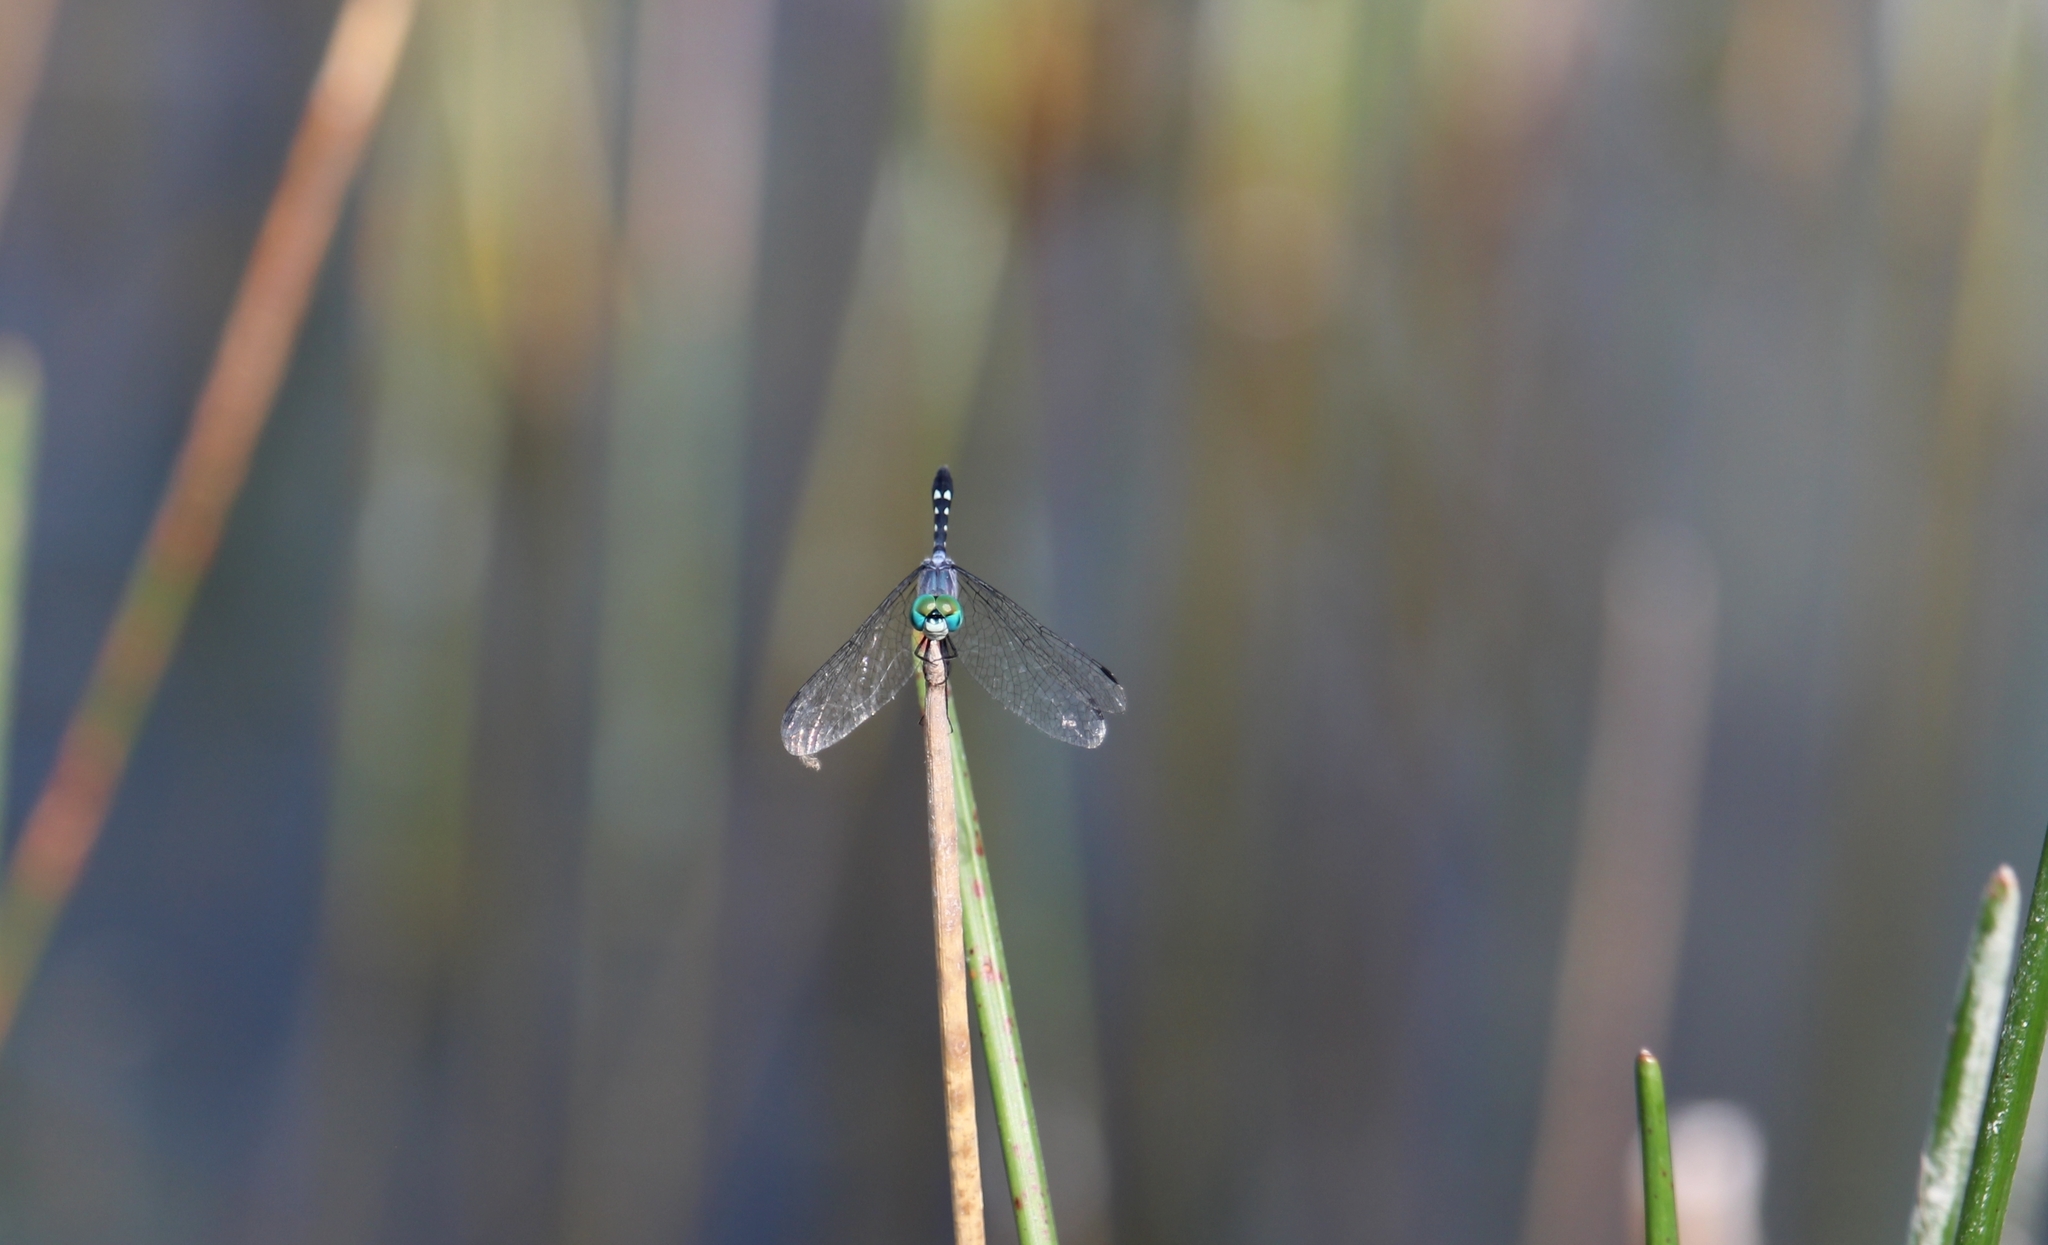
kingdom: Animalia
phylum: Arthropoda
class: Insecta
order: Odonata
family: Libellulidae
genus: Micrathyria
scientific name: Micrathyria debilis
